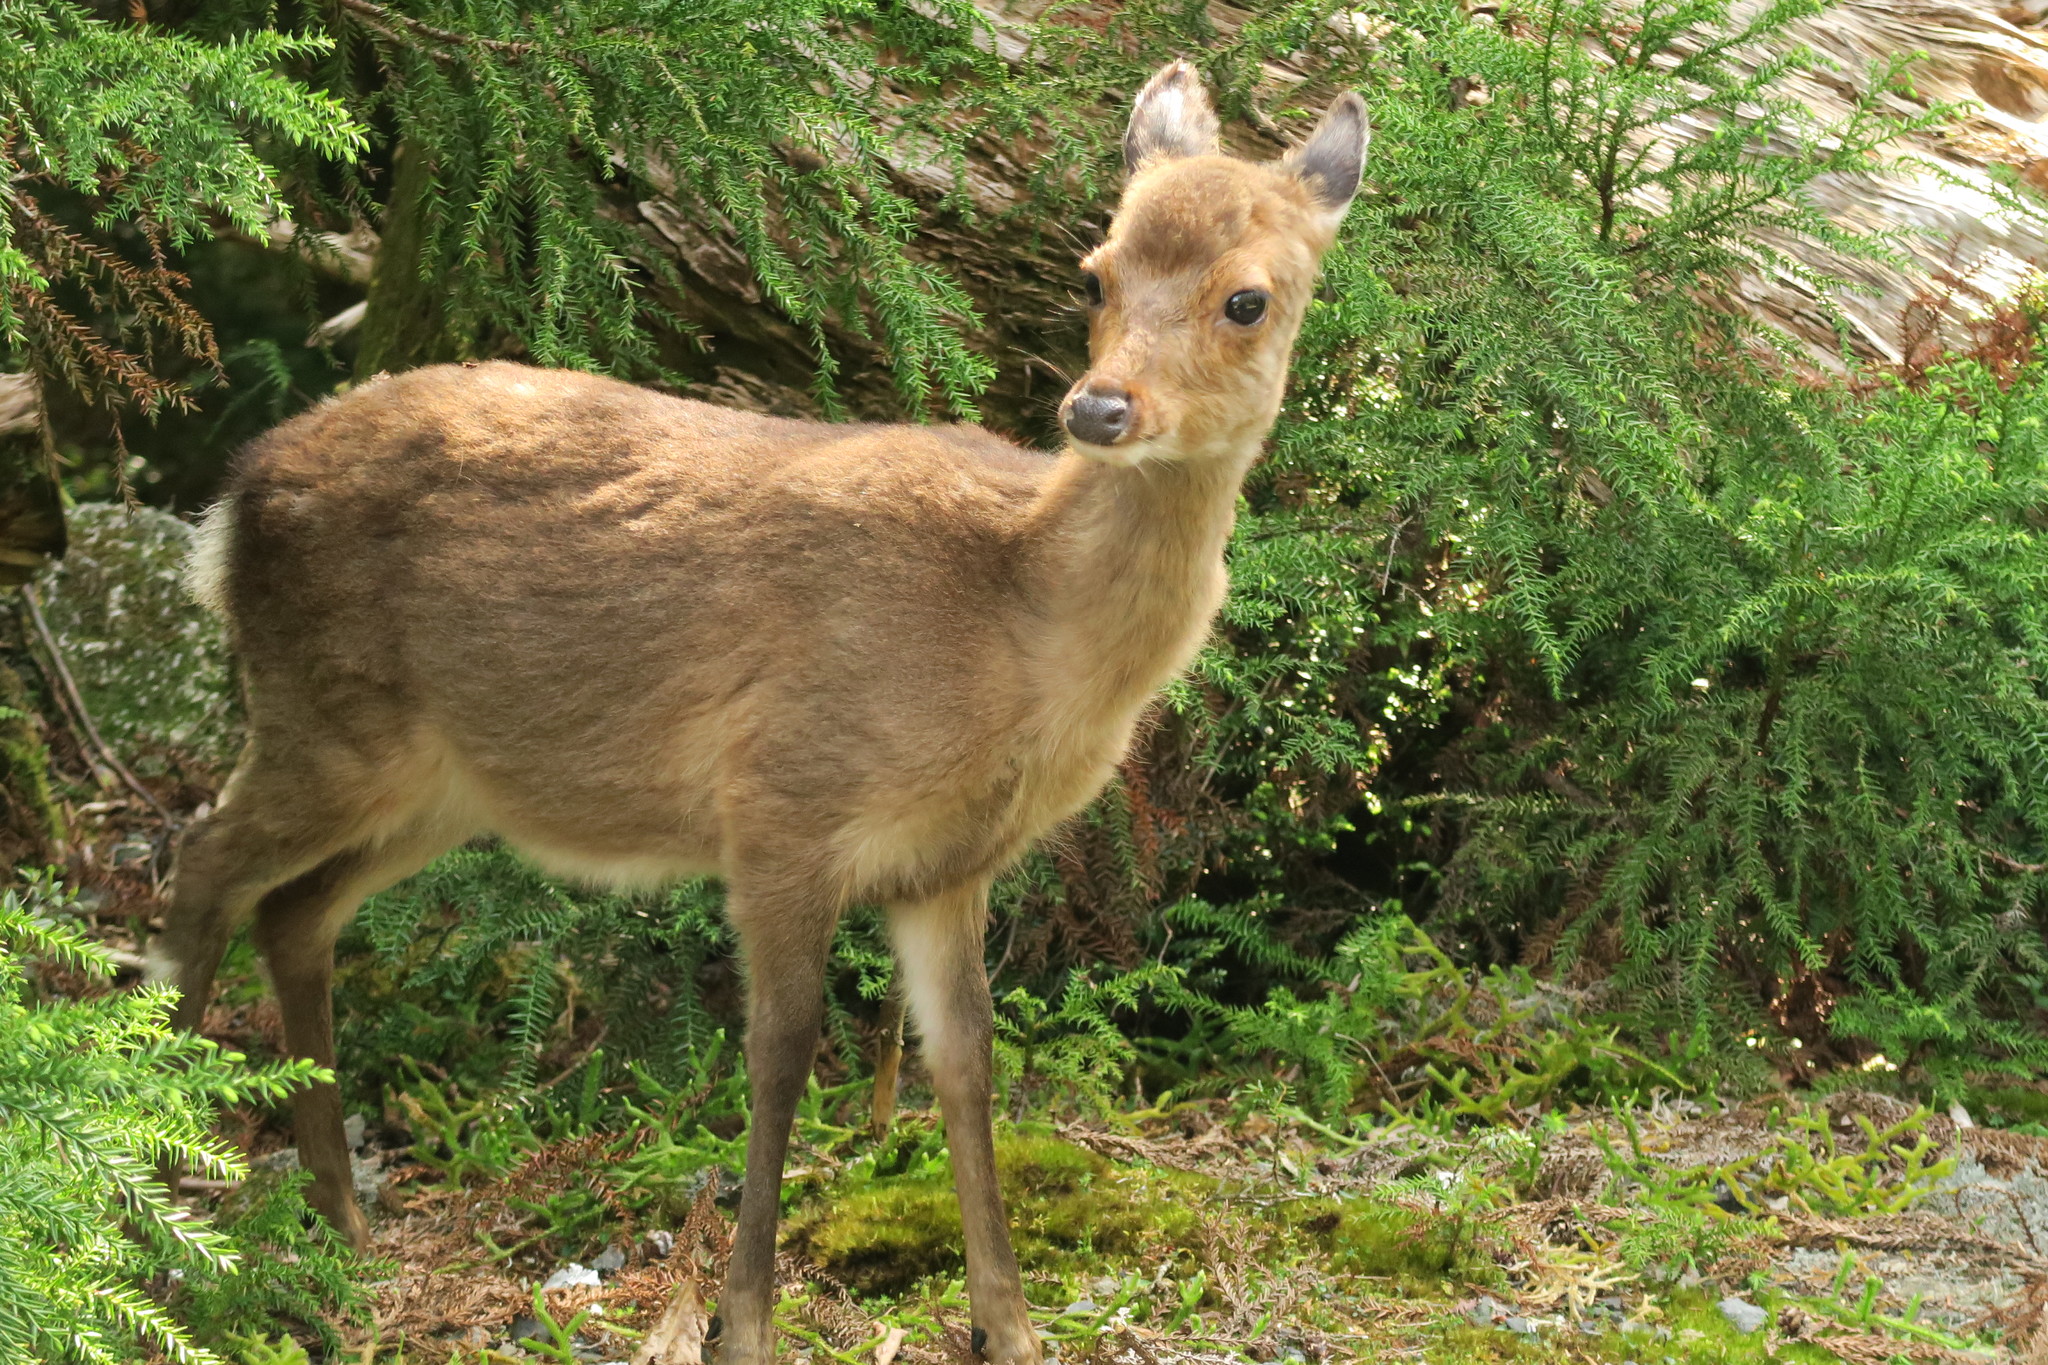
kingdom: Animalia
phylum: Chordata
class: Mammalia
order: Artiodactyla
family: Cervidae
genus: Cervus
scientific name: Cervus nippon
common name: Sika deer
